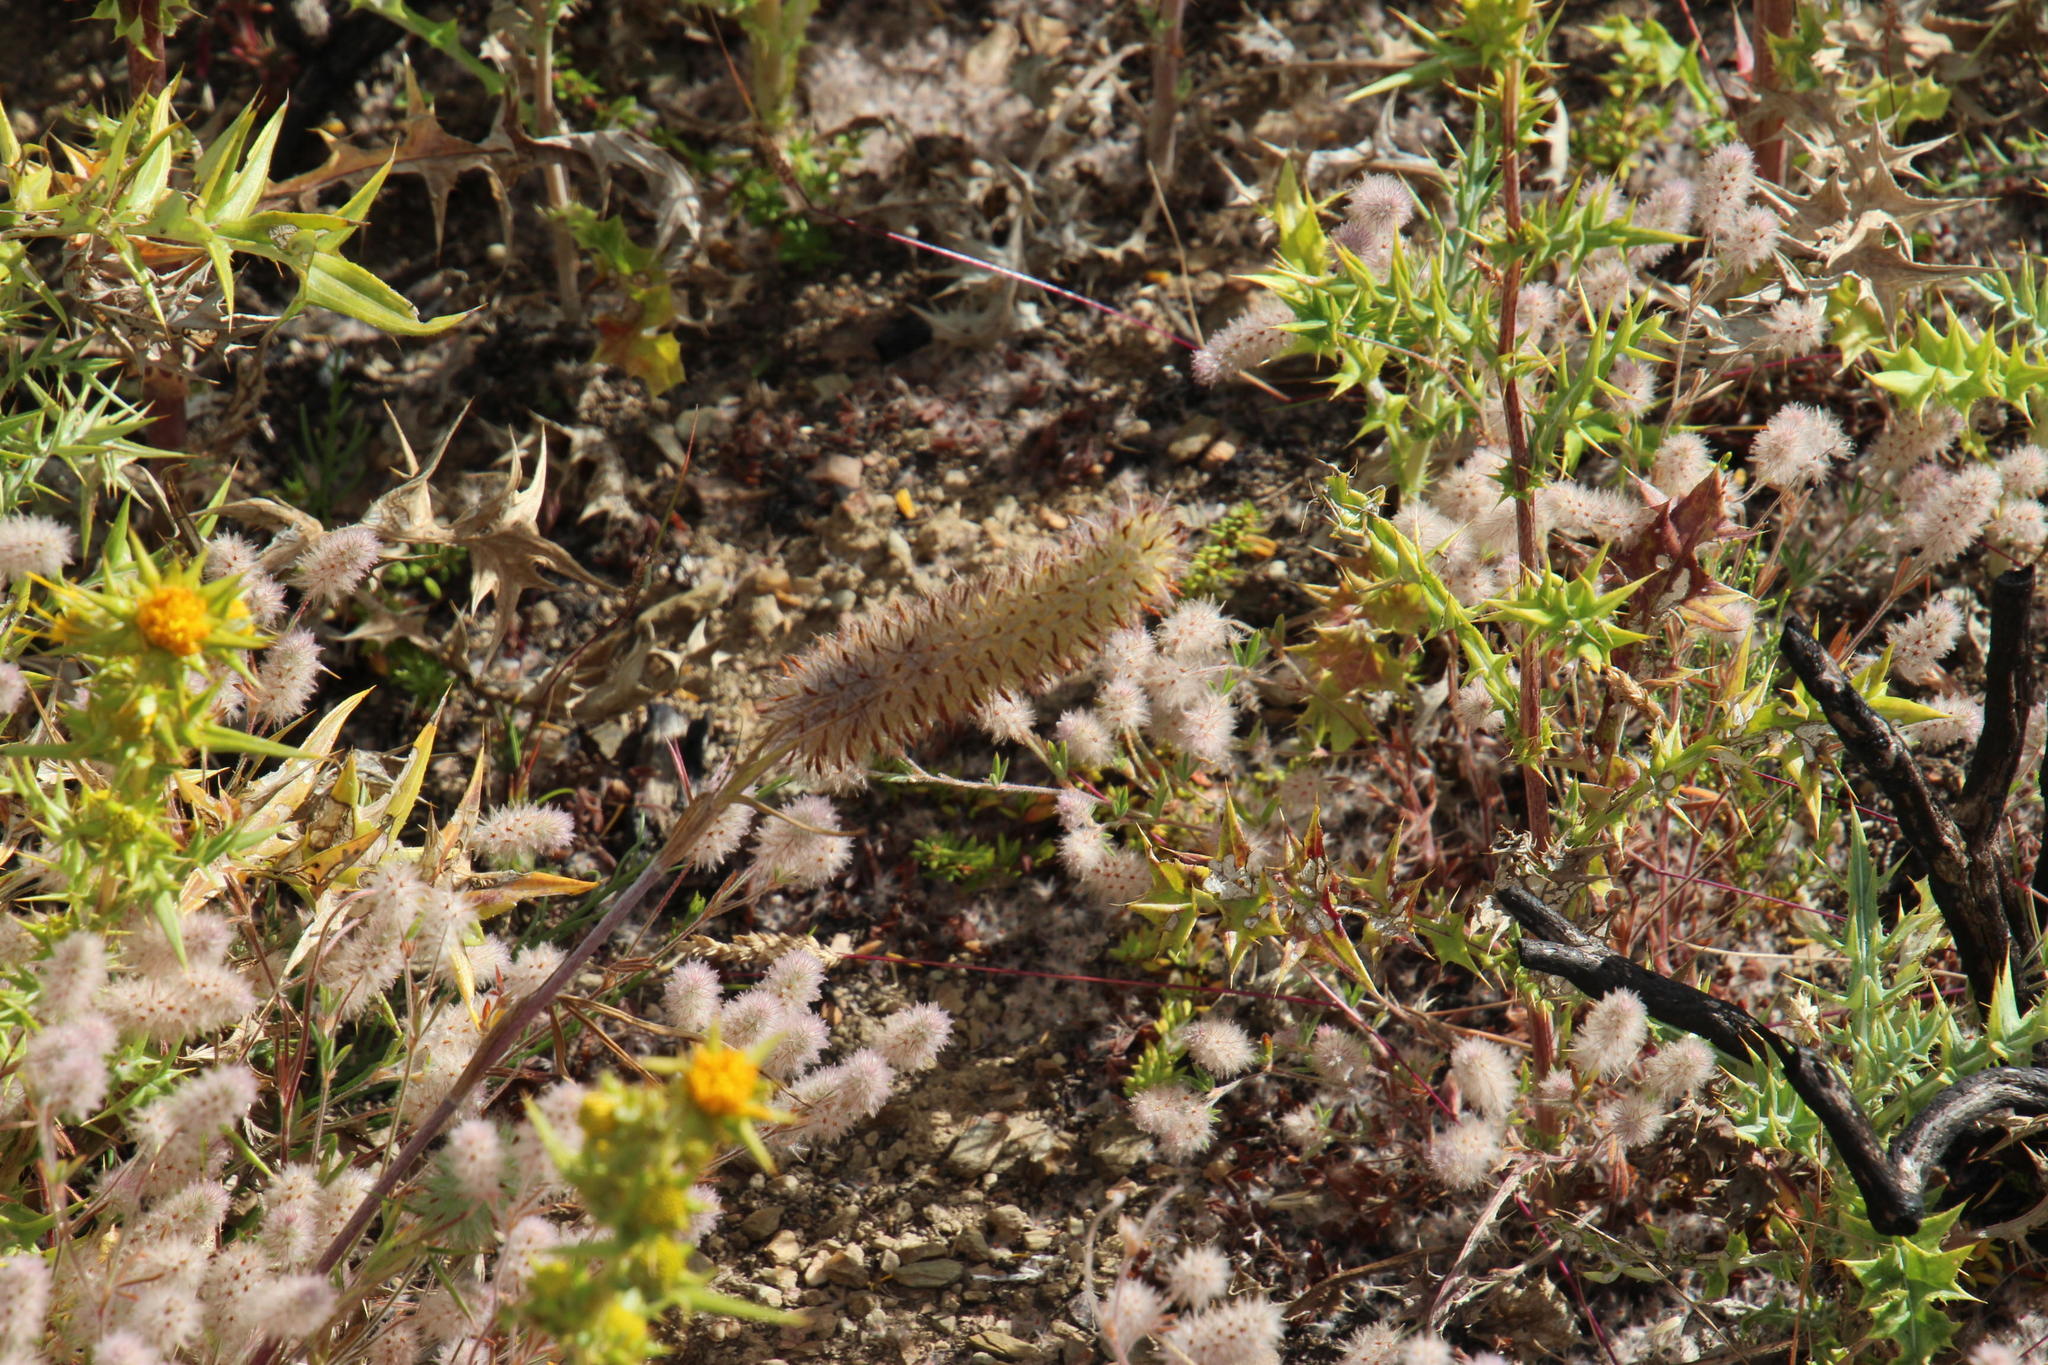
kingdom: Plantae
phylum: Tracheophyta
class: Magnoliopsida
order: Fabales
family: Fabaceae
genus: Trifolium
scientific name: Trifolium arvense
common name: Hare's-foot clover
